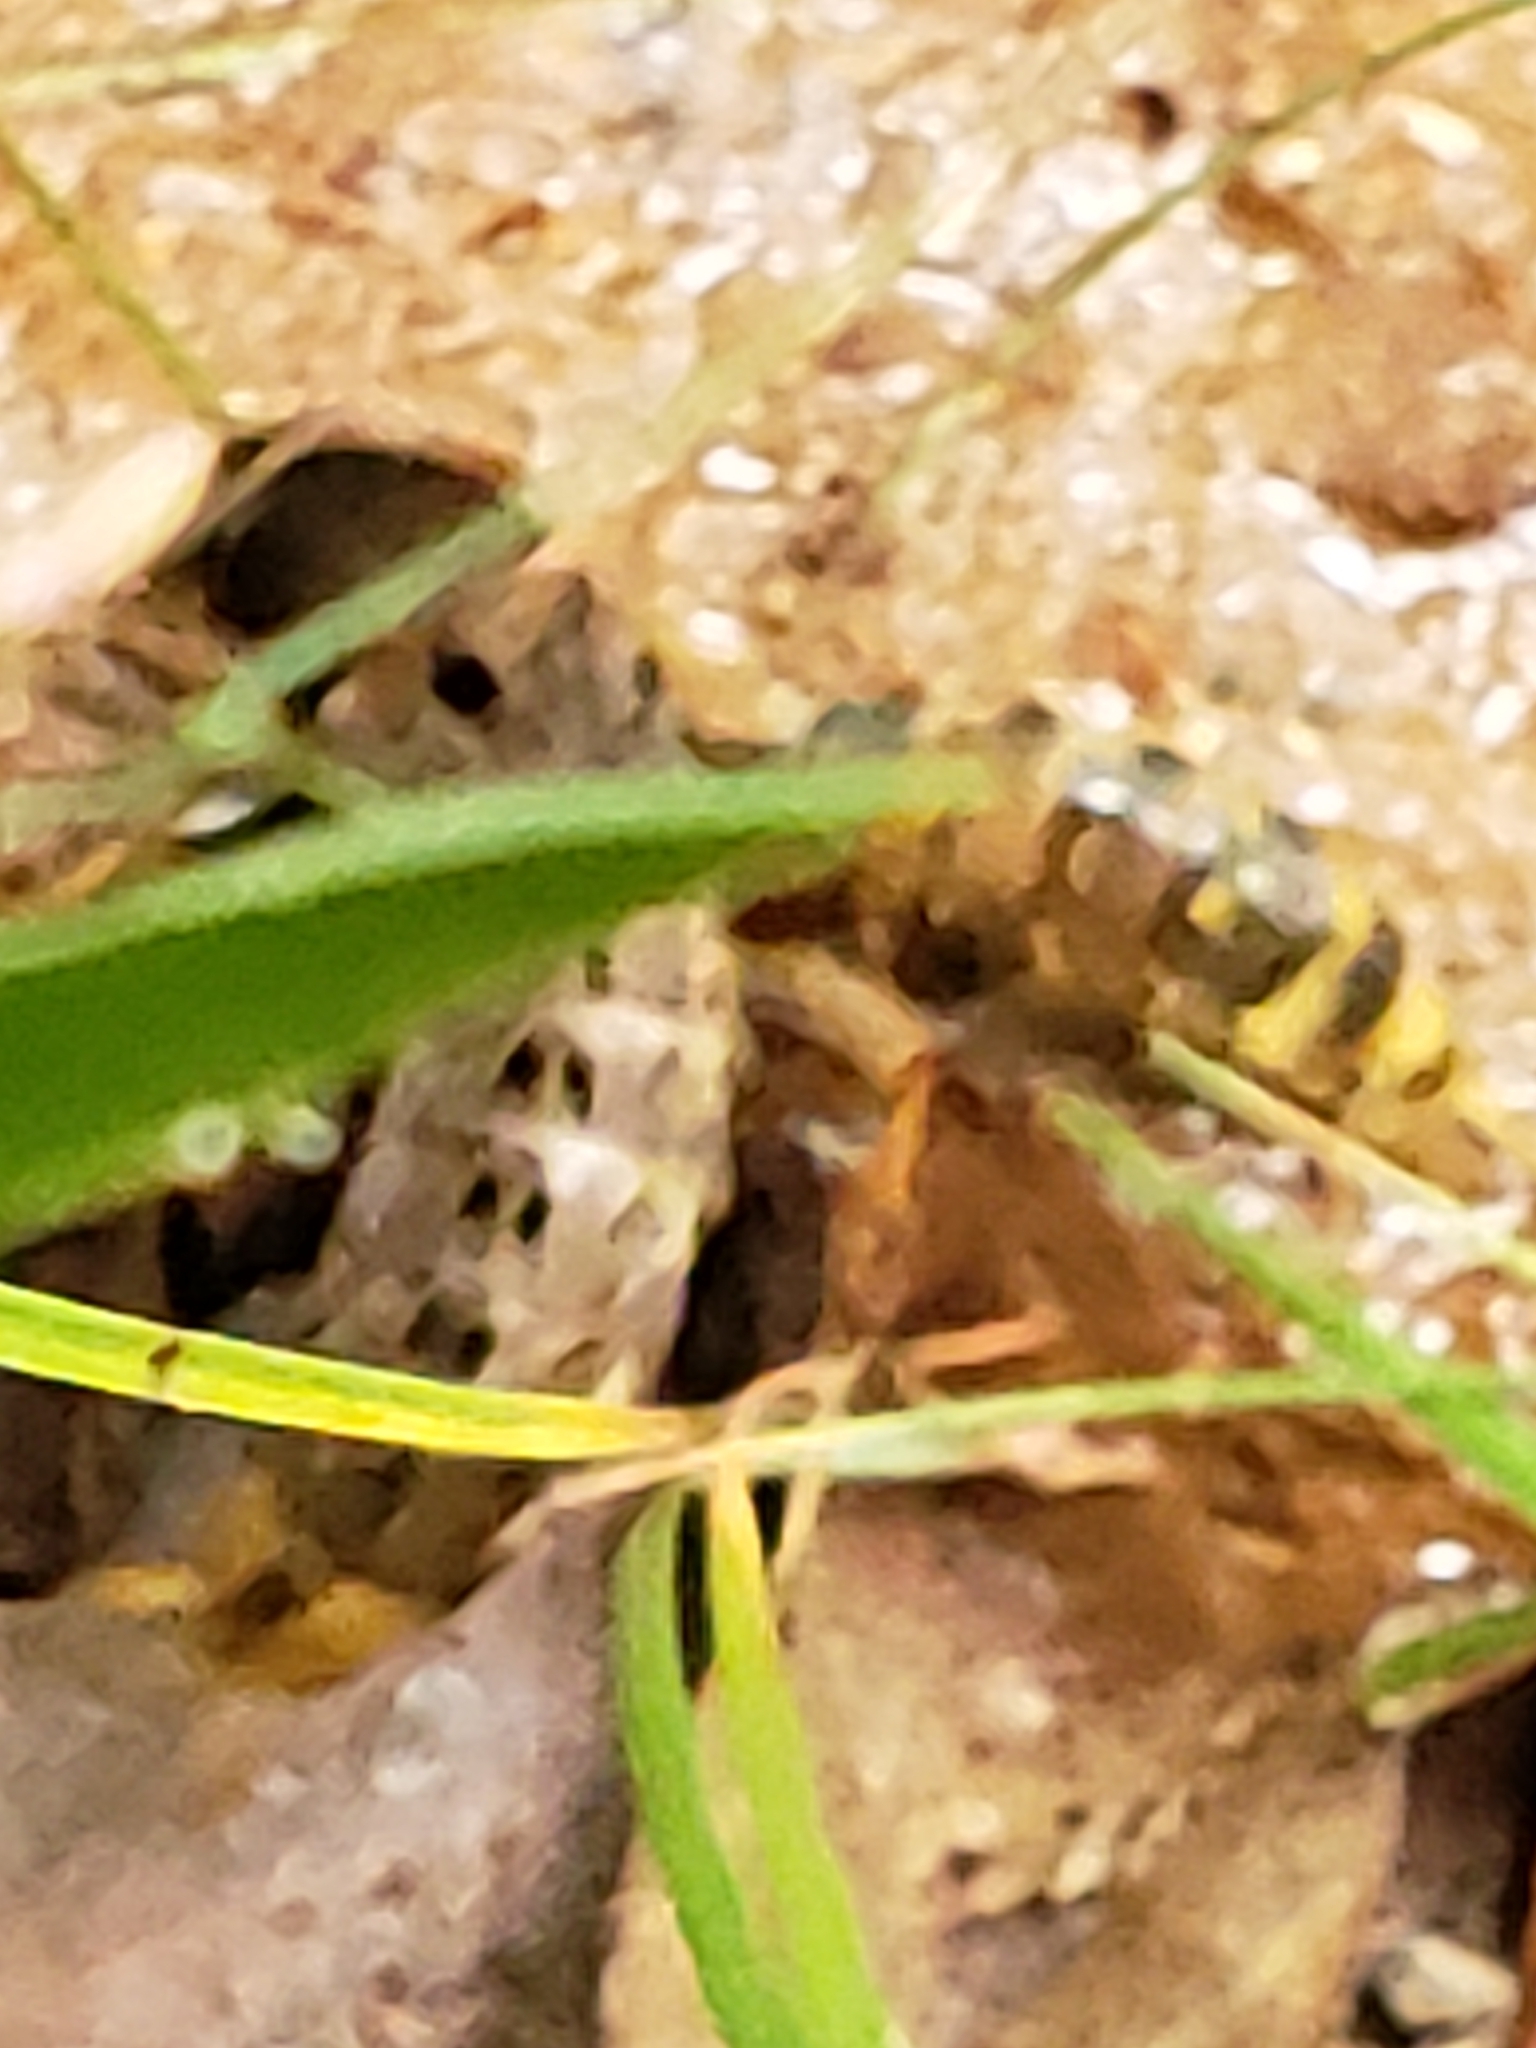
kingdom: Animalia
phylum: Arthropoda
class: Insecta
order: Coleoptera
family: Staphylinidae
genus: Platydracus
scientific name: Platydracus maculosus
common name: Brown rove beetle
